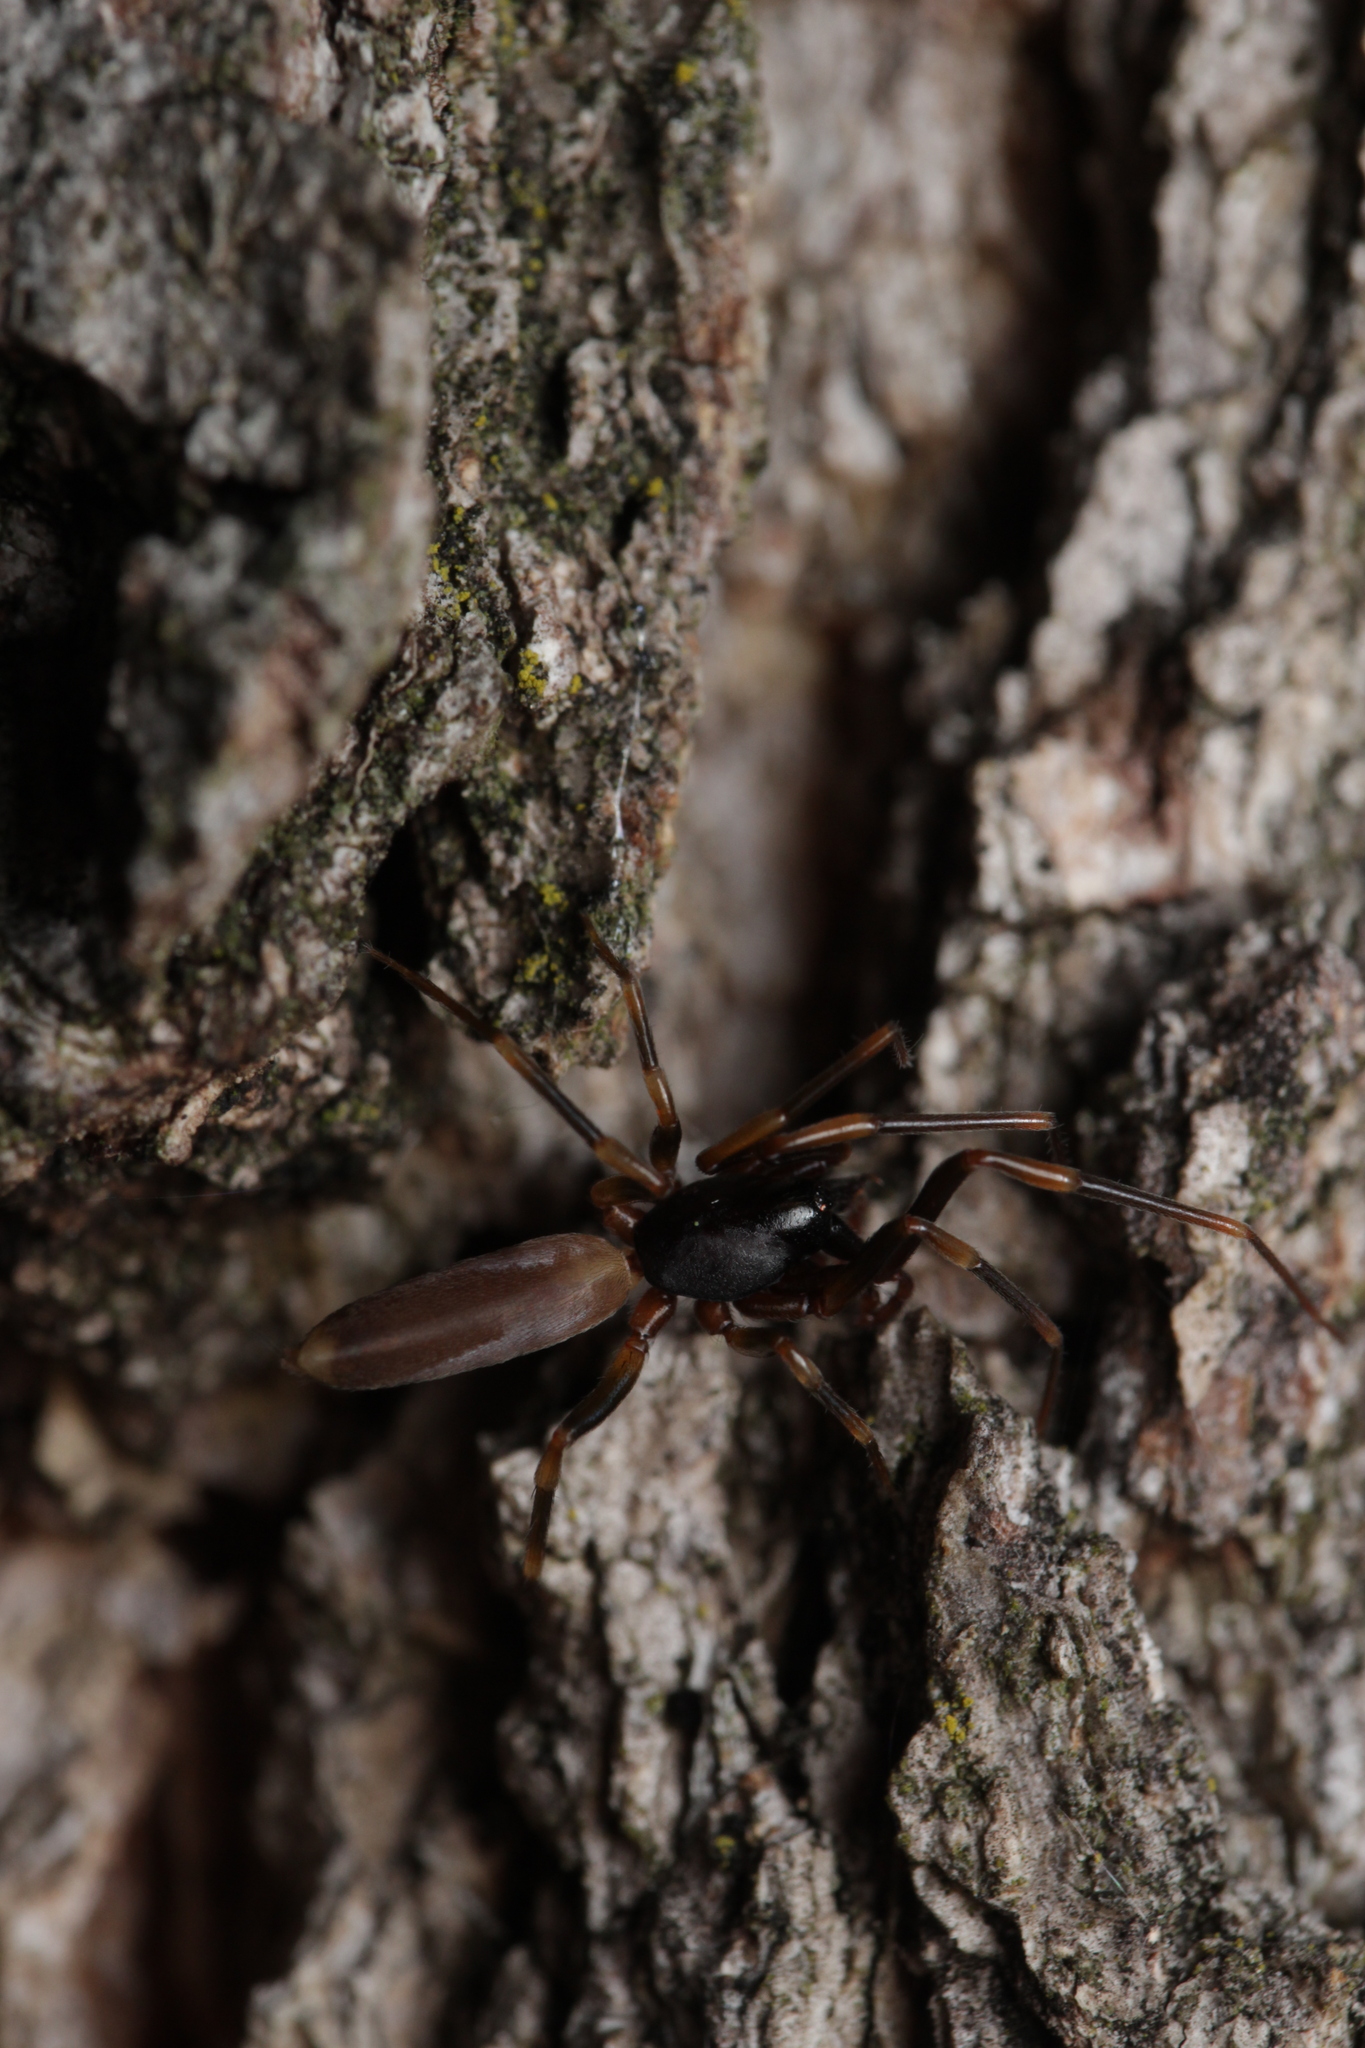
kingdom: Animalia
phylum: Arthropoda
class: Arachnida
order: Araneae
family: Dysderidae
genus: Harpactea
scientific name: Harpactea hombergi
